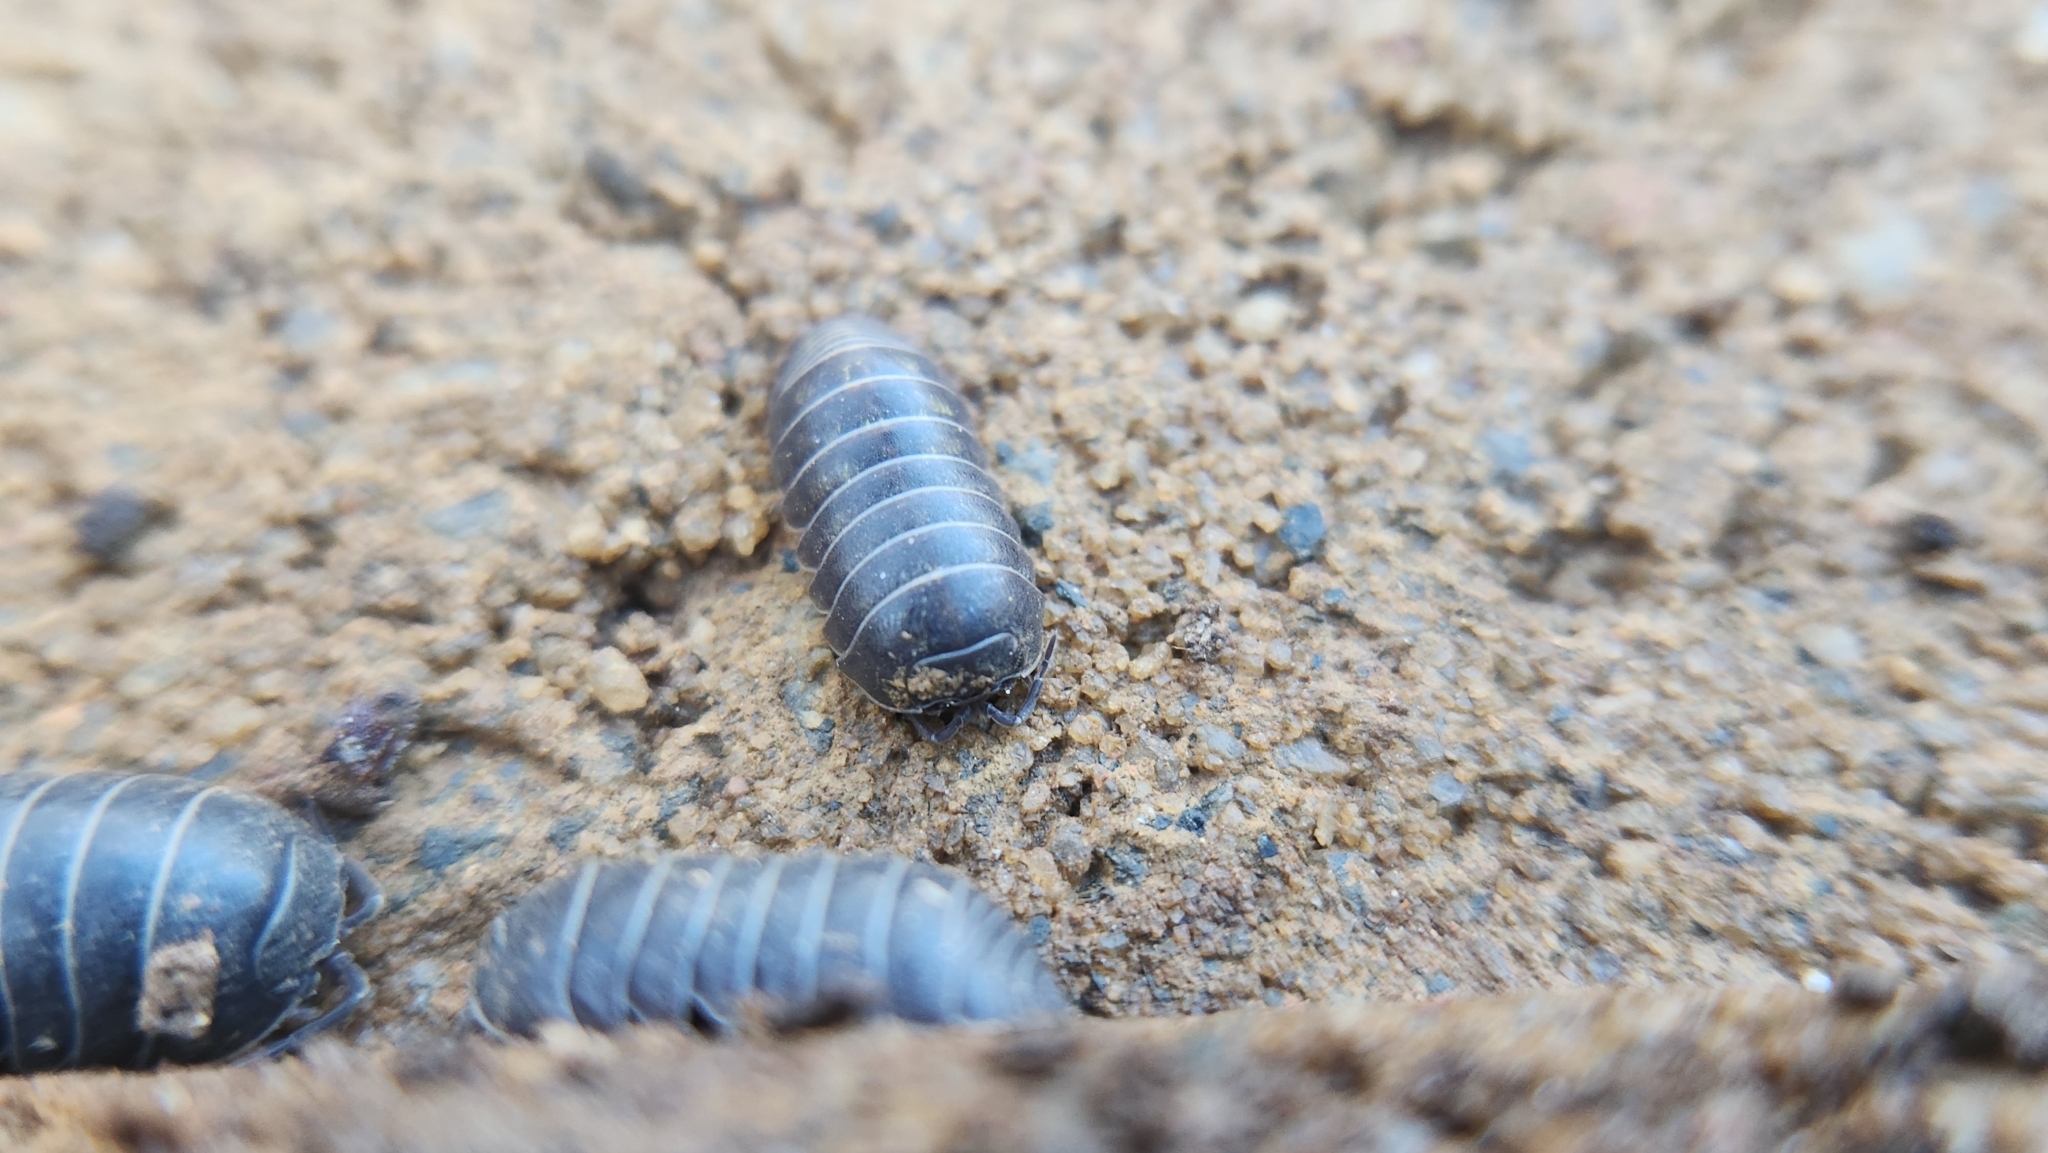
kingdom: Animalia
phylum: Arthropoda
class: Malacostraca
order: Isopoda
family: Armadillidiidae
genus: Armadillidium
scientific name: Armadillidium vulgare
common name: Common pill woodlouse
